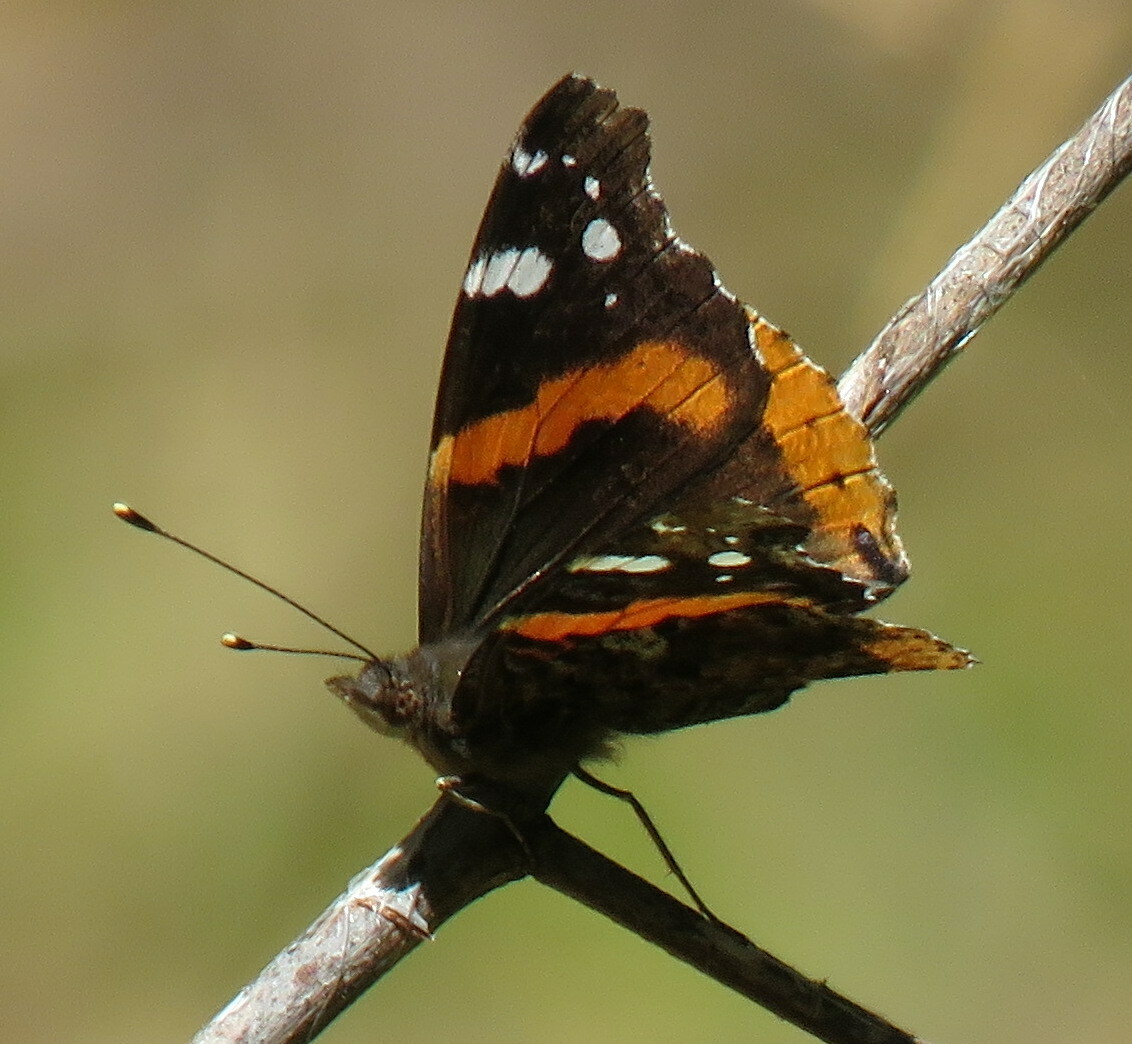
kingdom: Animalia
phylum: Arthropoda
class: Insecta
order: Lepidoptera
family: Nymphalidae
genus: Vanessa
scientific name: Vanessa atalanta
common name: Red admiral
